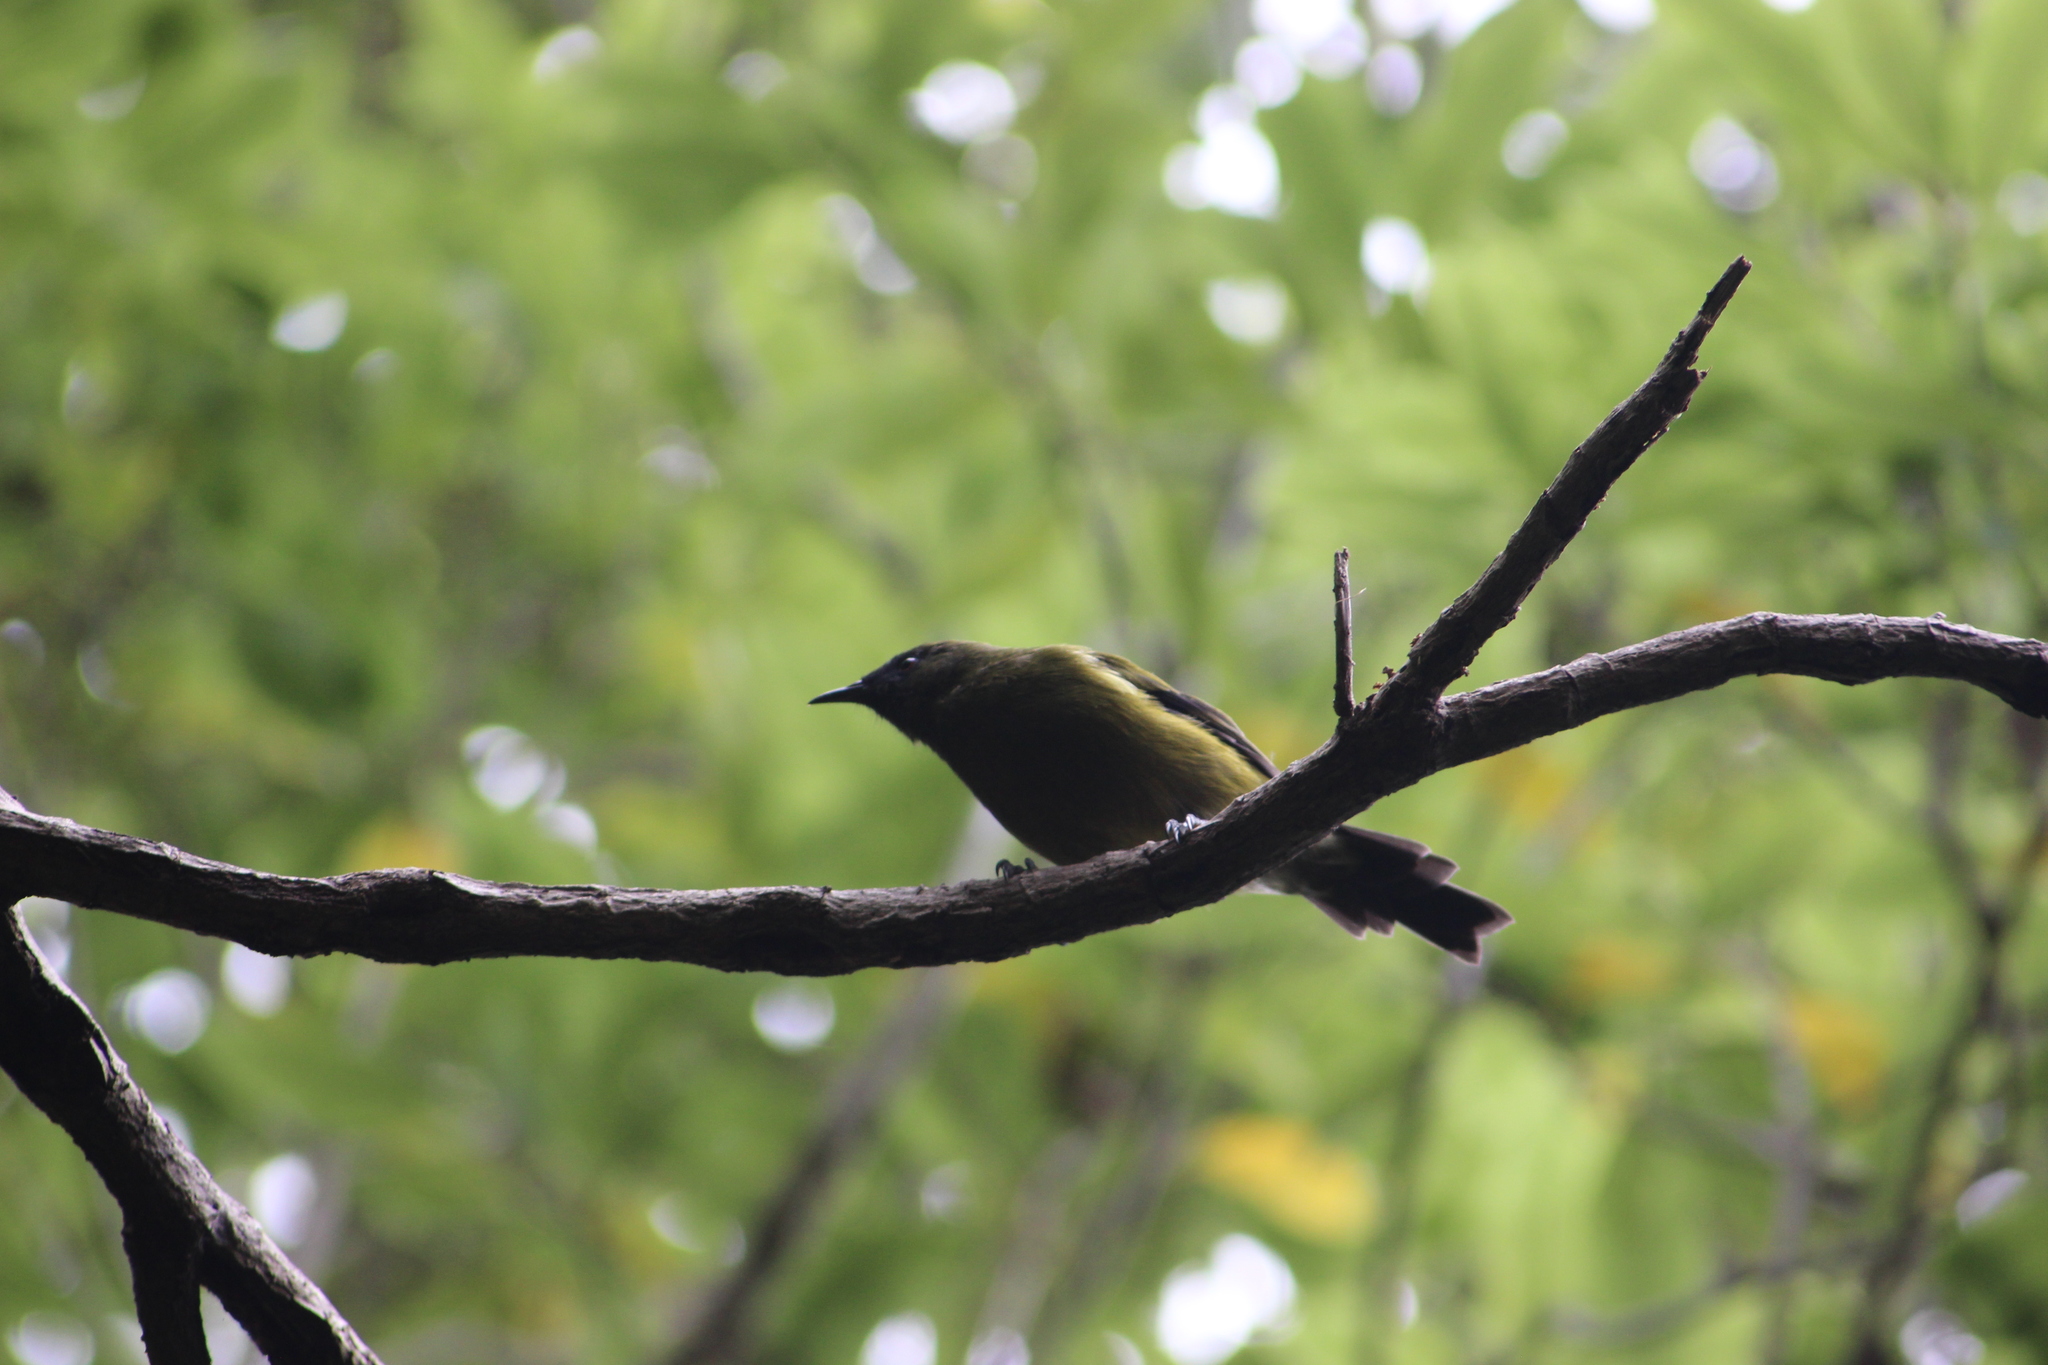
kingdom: Animalia
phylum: Chordata
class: Aves
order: Passeriformes
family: Meliphagidae
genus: Anthornis
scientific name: Anthornis melanura
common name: New zealand bellbird
